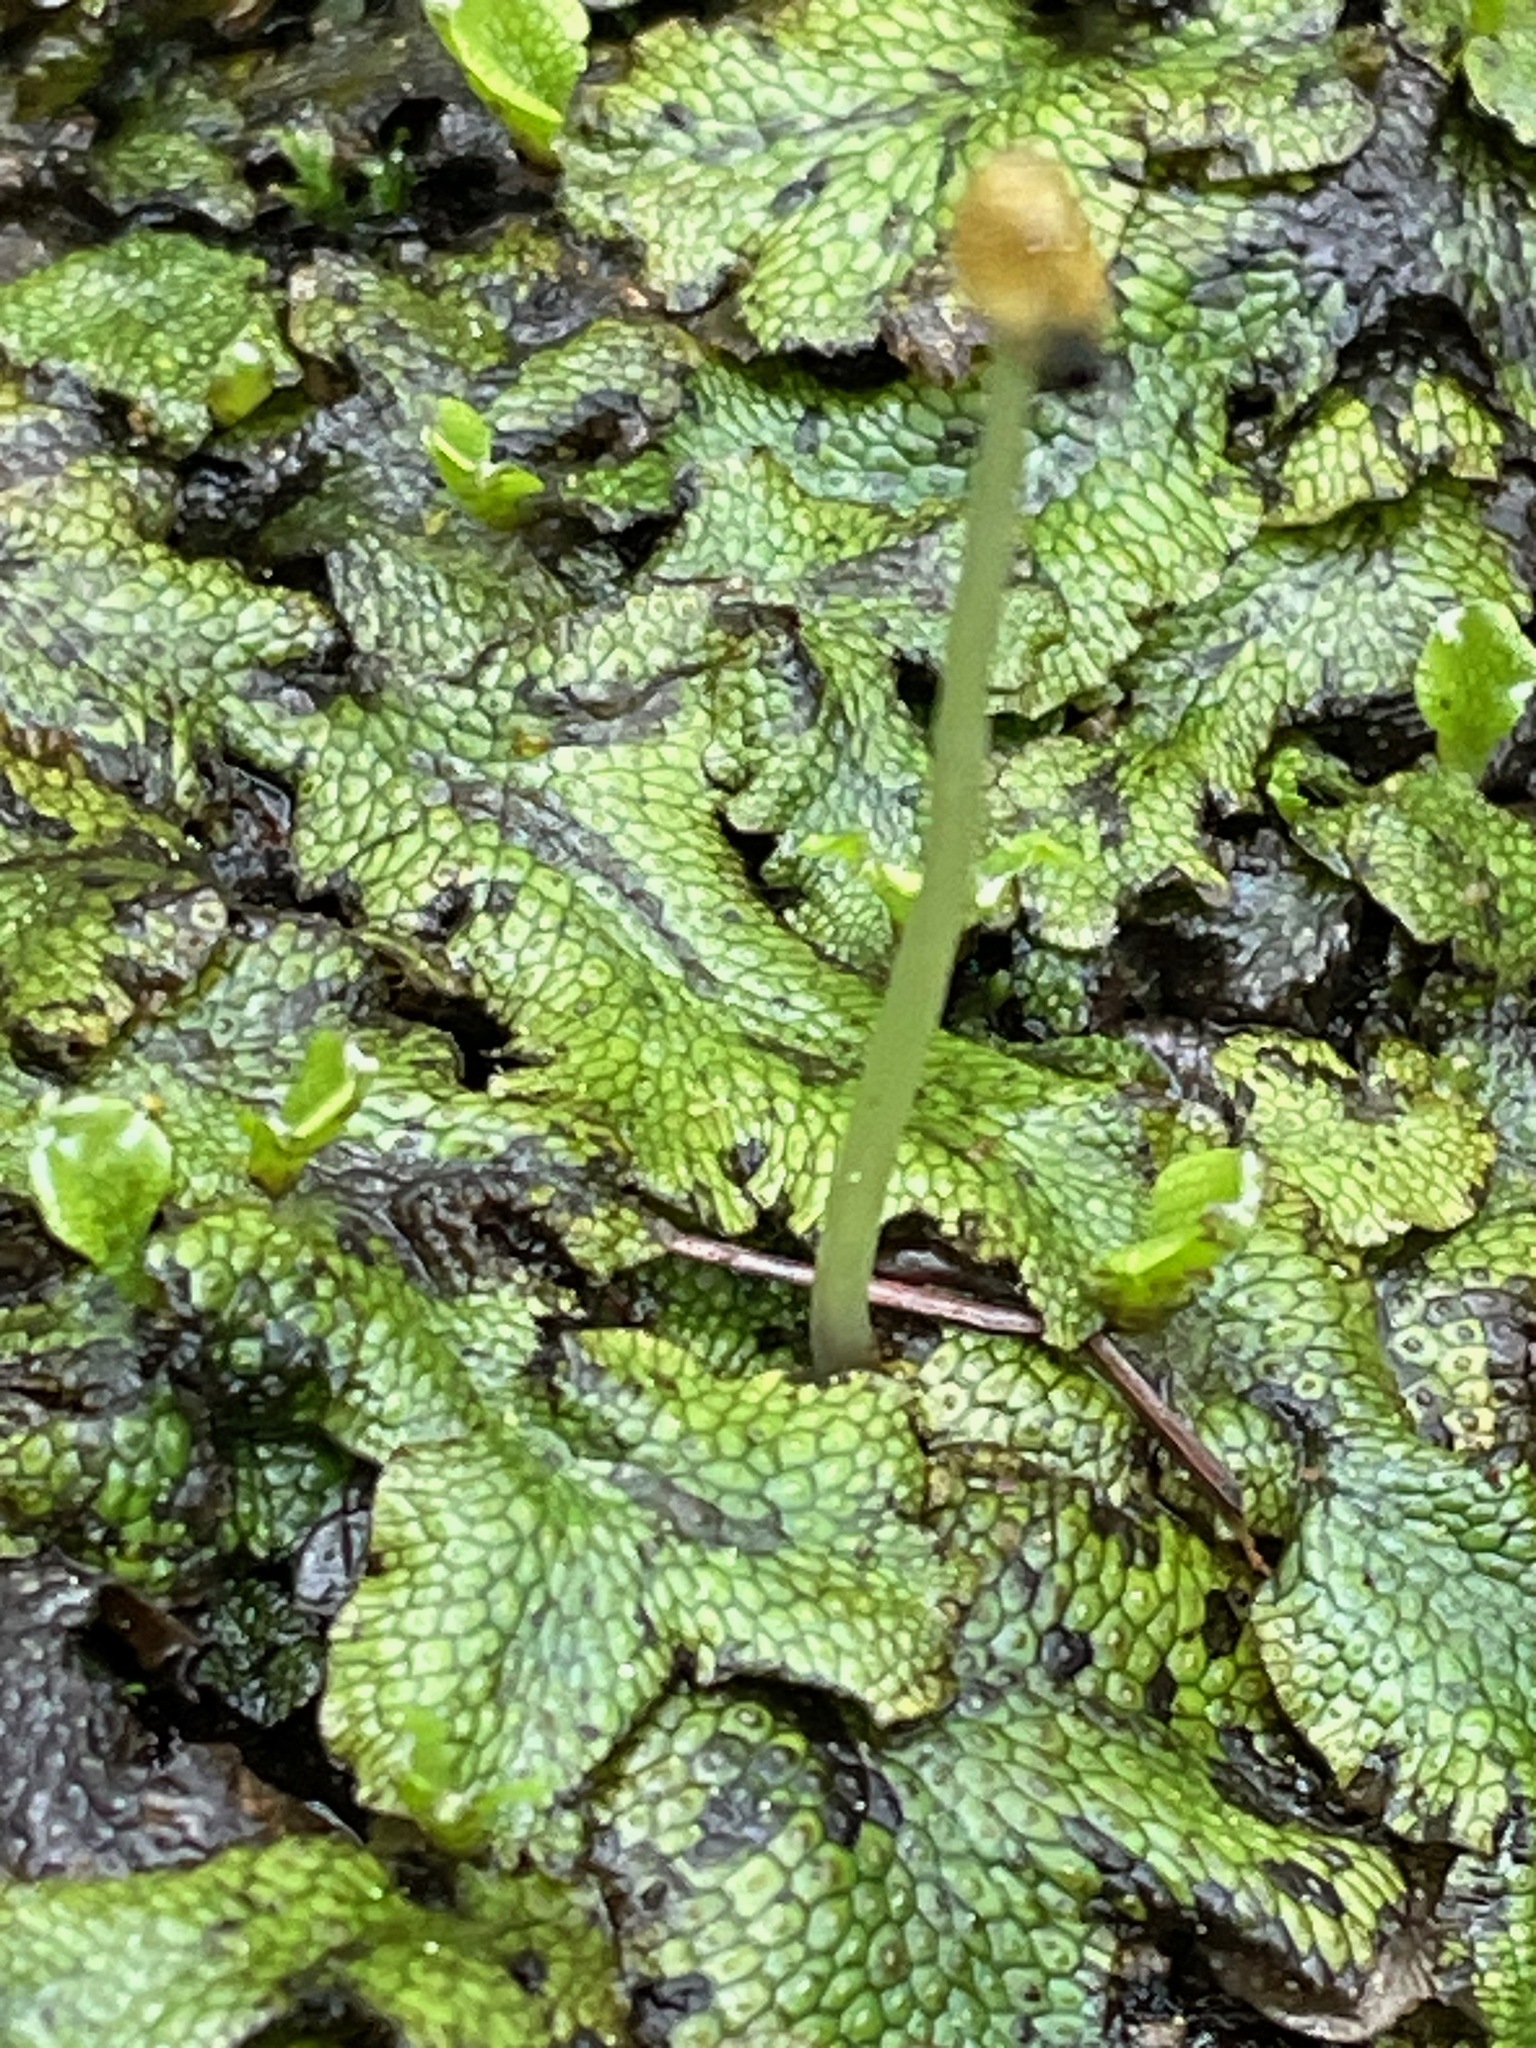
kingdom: Plantae
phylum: Marchantiophyta
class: Marchantiopsida
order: Marchantiales
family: Conocephalaceae
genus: Conocephalum
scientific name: Conocephalum salebrosum
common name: Cat-tongue liverwort
